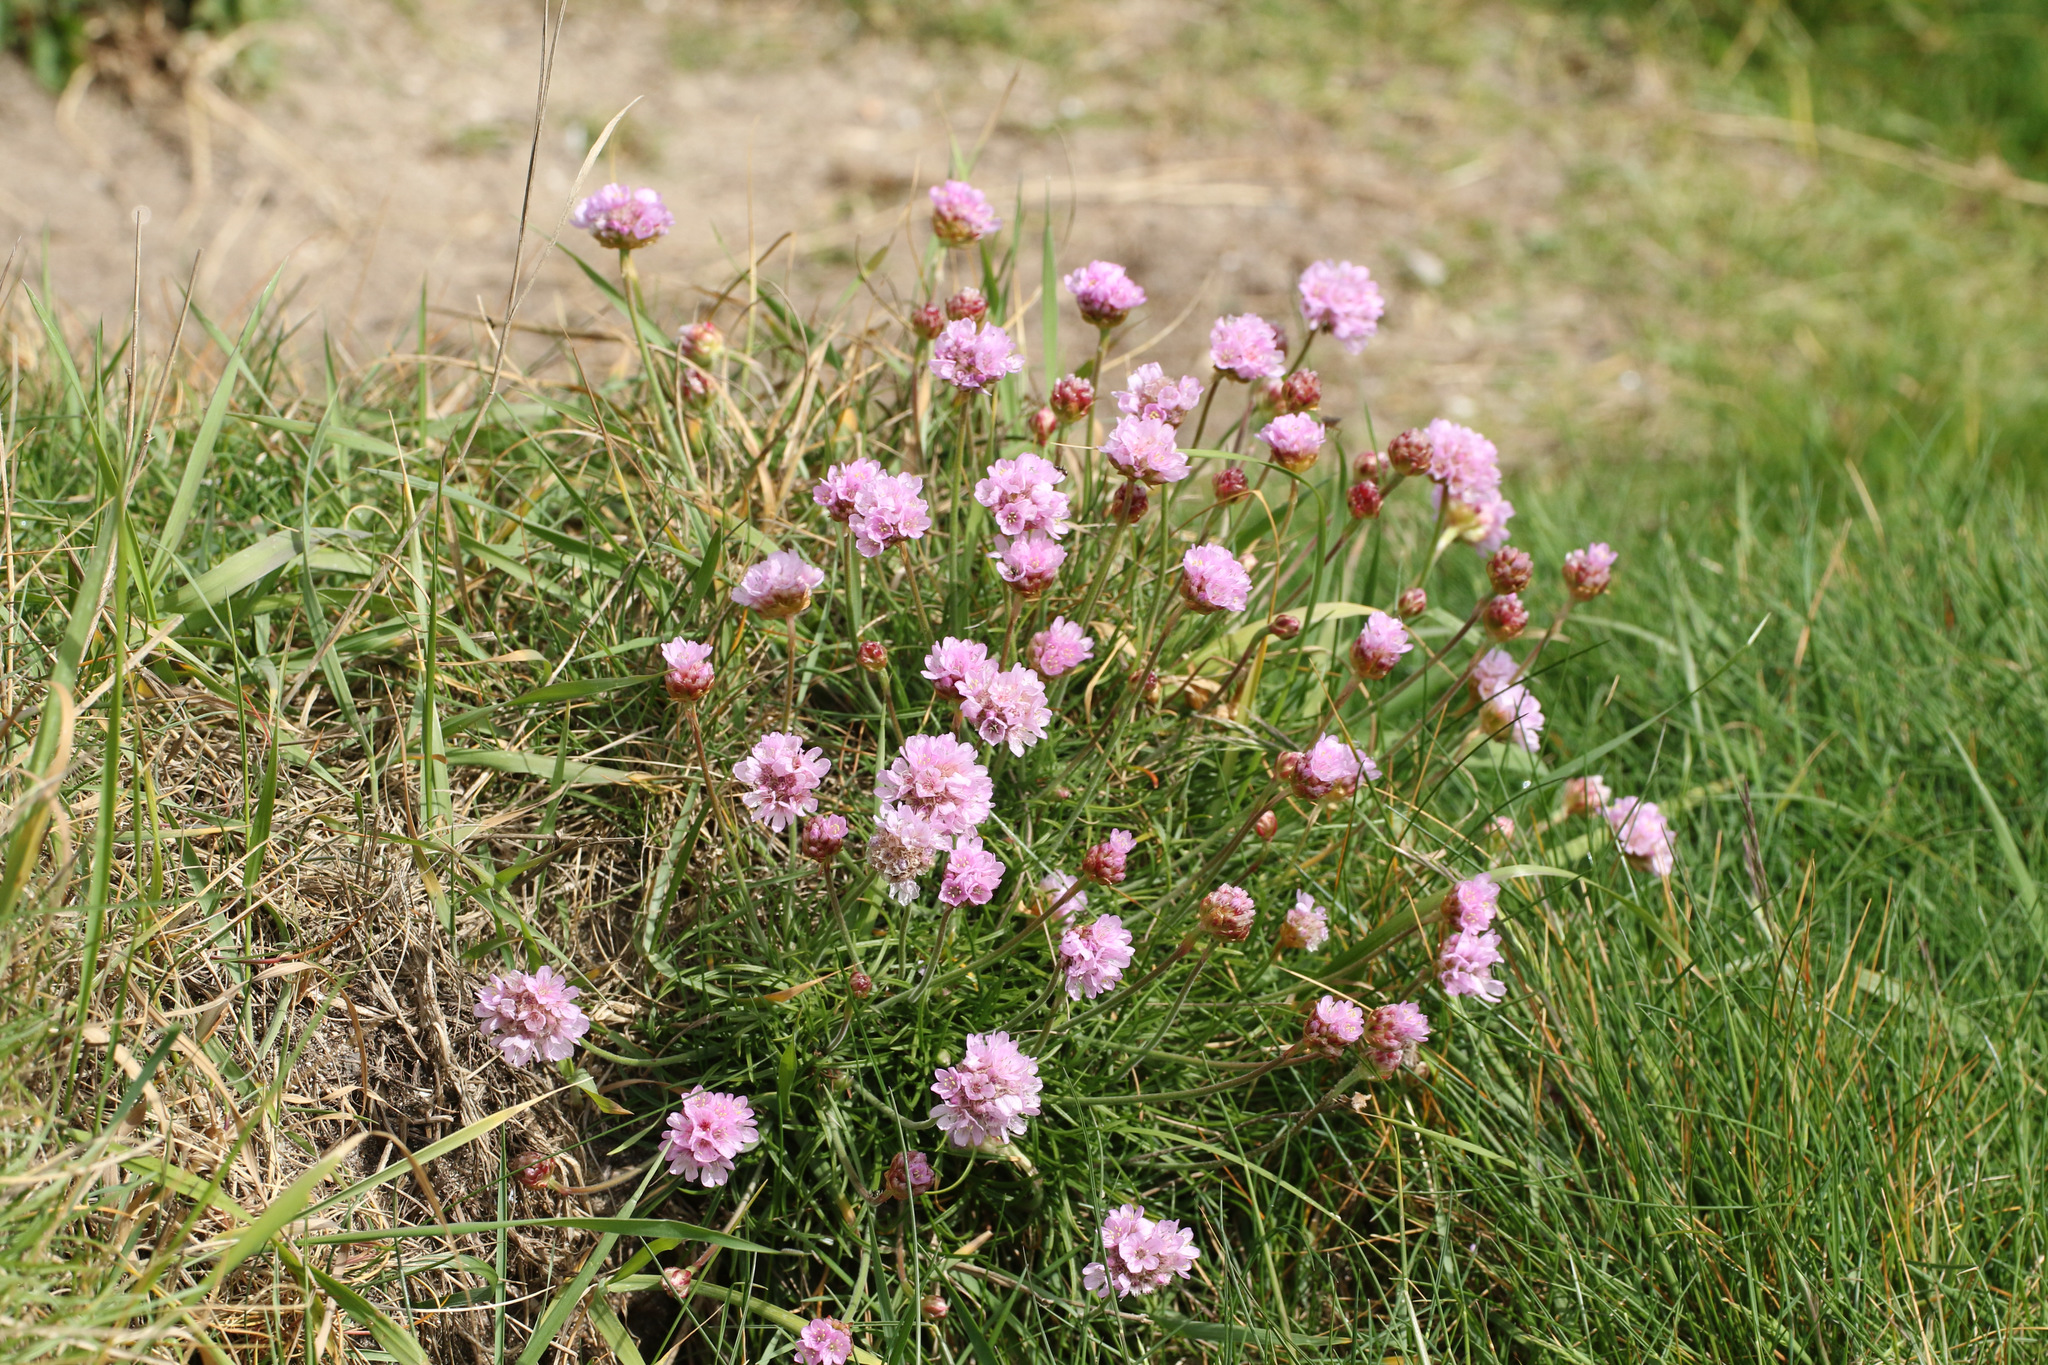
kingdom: Plantae
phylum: Tracheophyta
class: Magnoliopsida
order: Caryophyllales
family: Plumbaginaceae
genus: Armeria
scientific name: Armeria maritima
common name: Thrift
